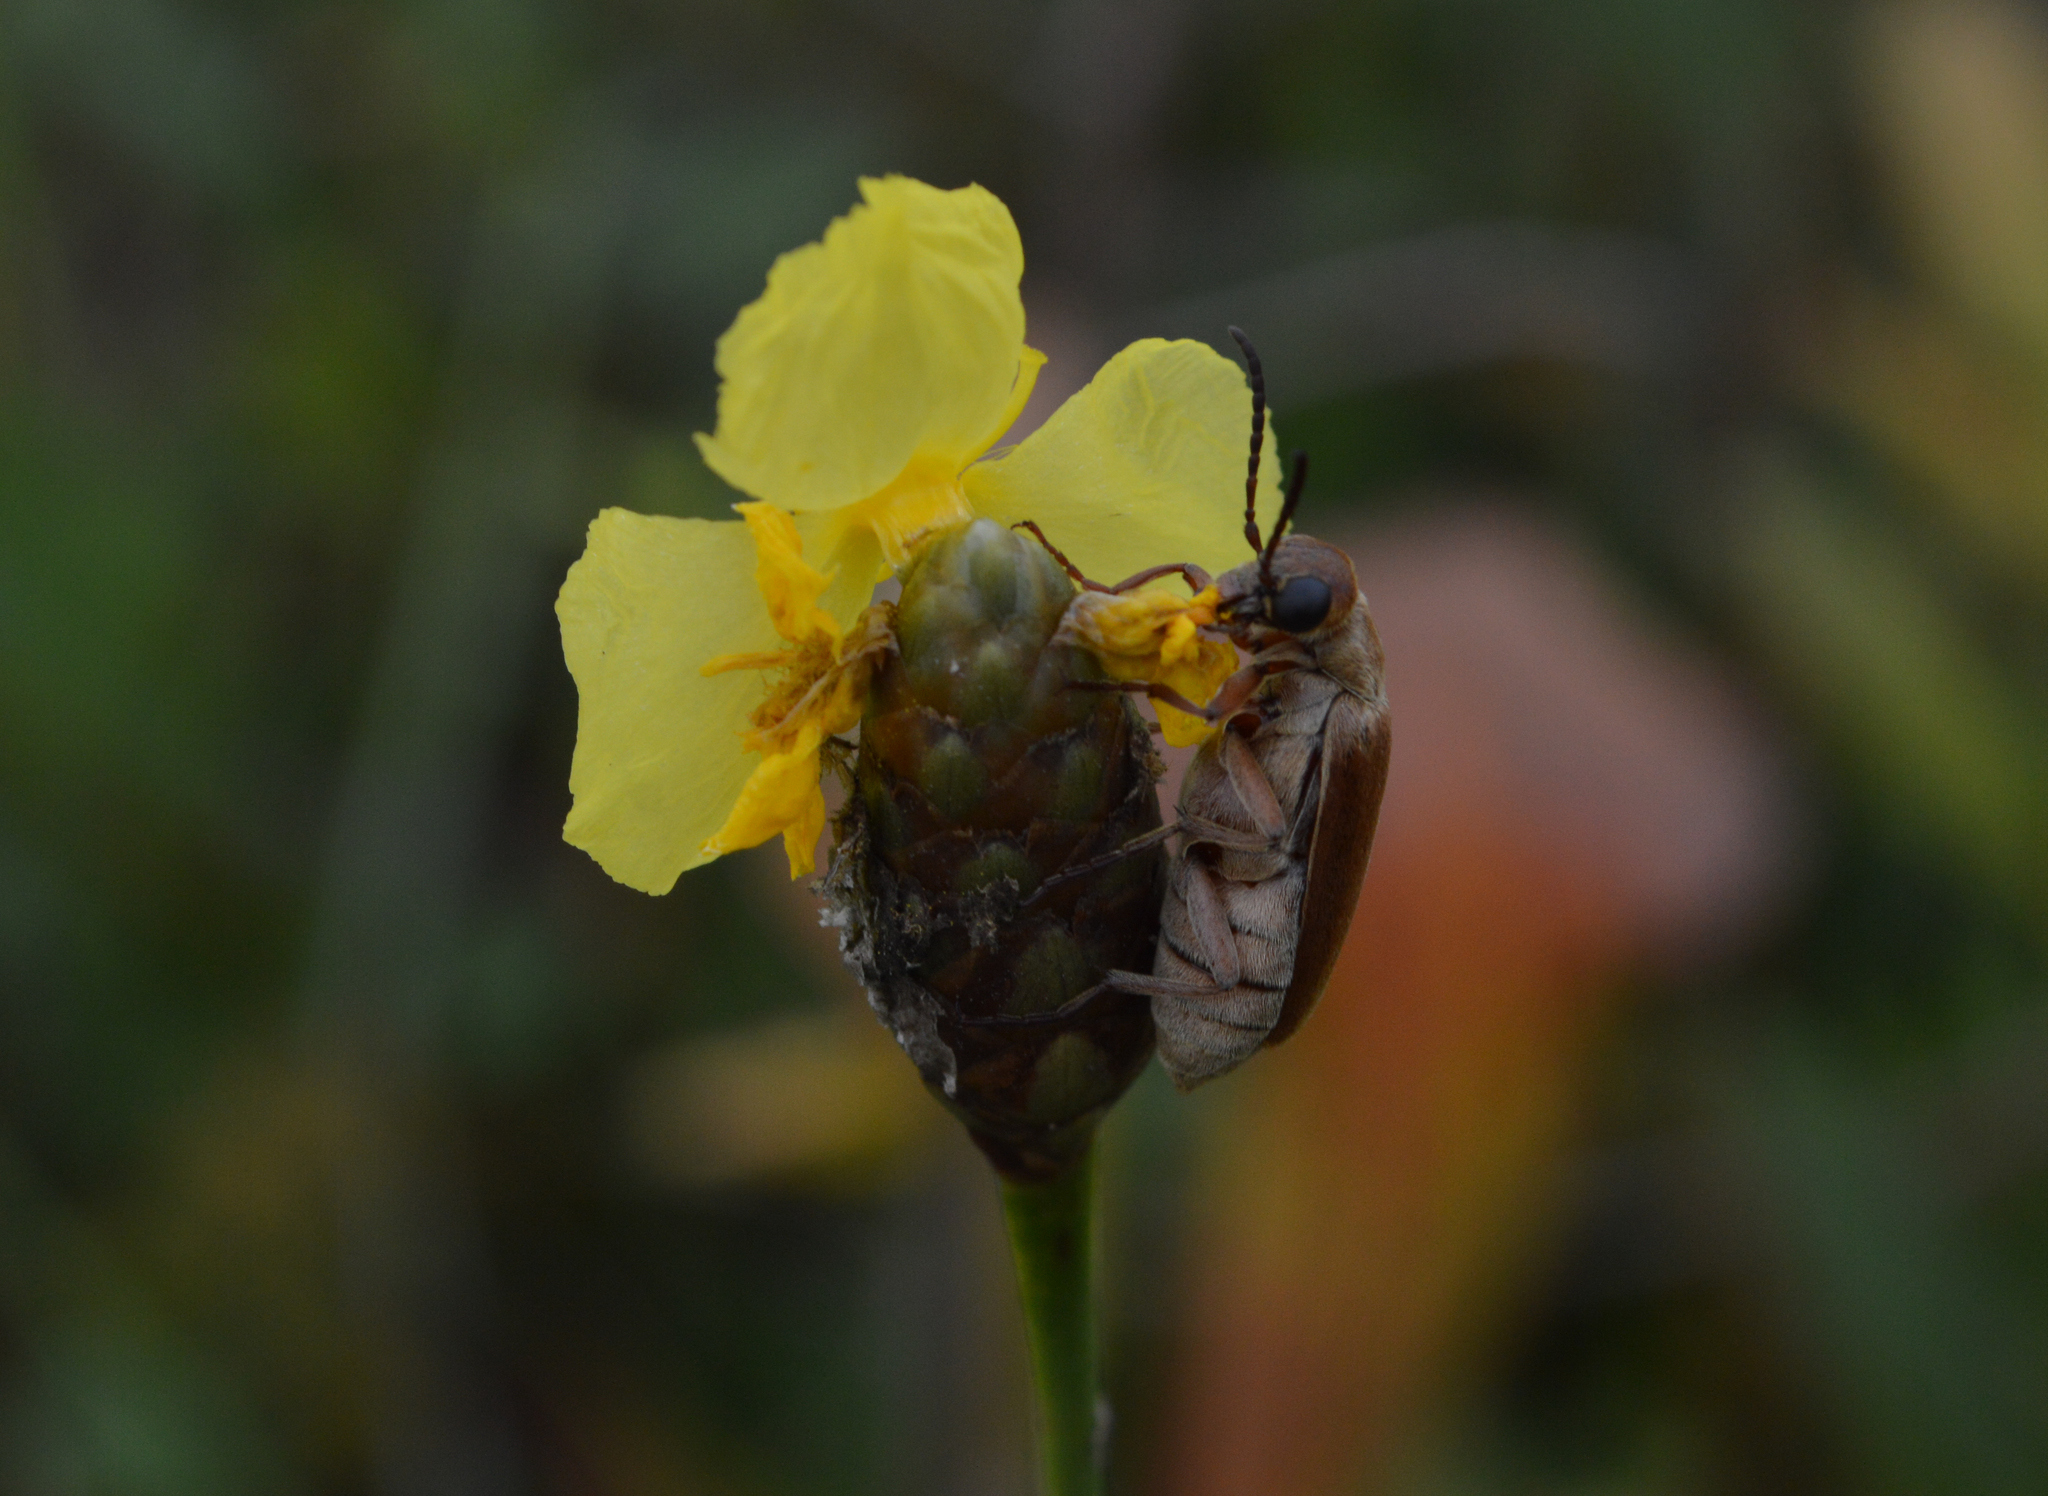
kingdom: Animalia
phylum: Arthropoda
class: Insecta
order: Coleoptera
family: Meloidae
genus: Epicauta
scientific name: Epicauta batesii
